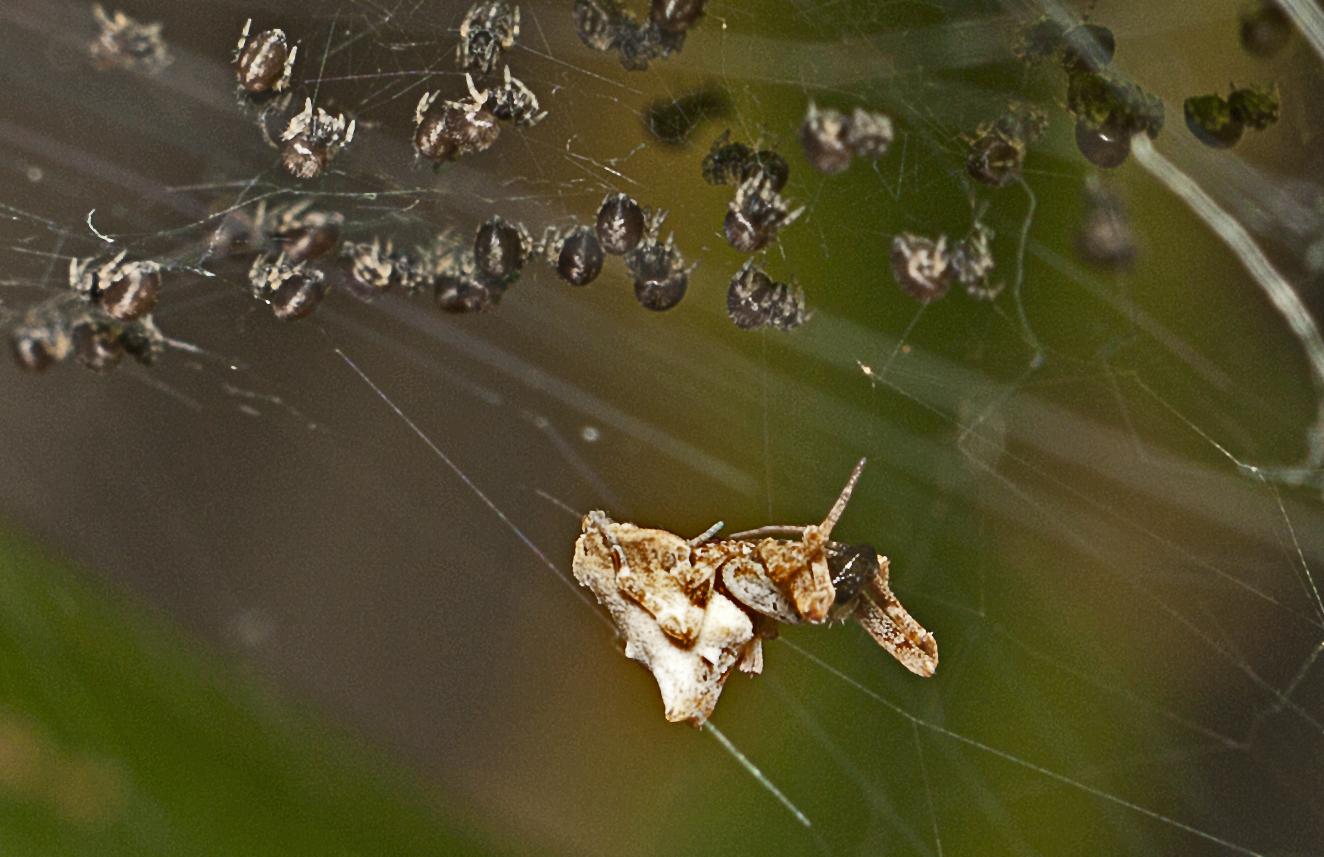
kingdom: Animalia
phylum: Arthropoda
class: Arachnida
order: Araneae
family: Uloboridae
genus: Philoponella
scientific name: Philoponella congregabilis
